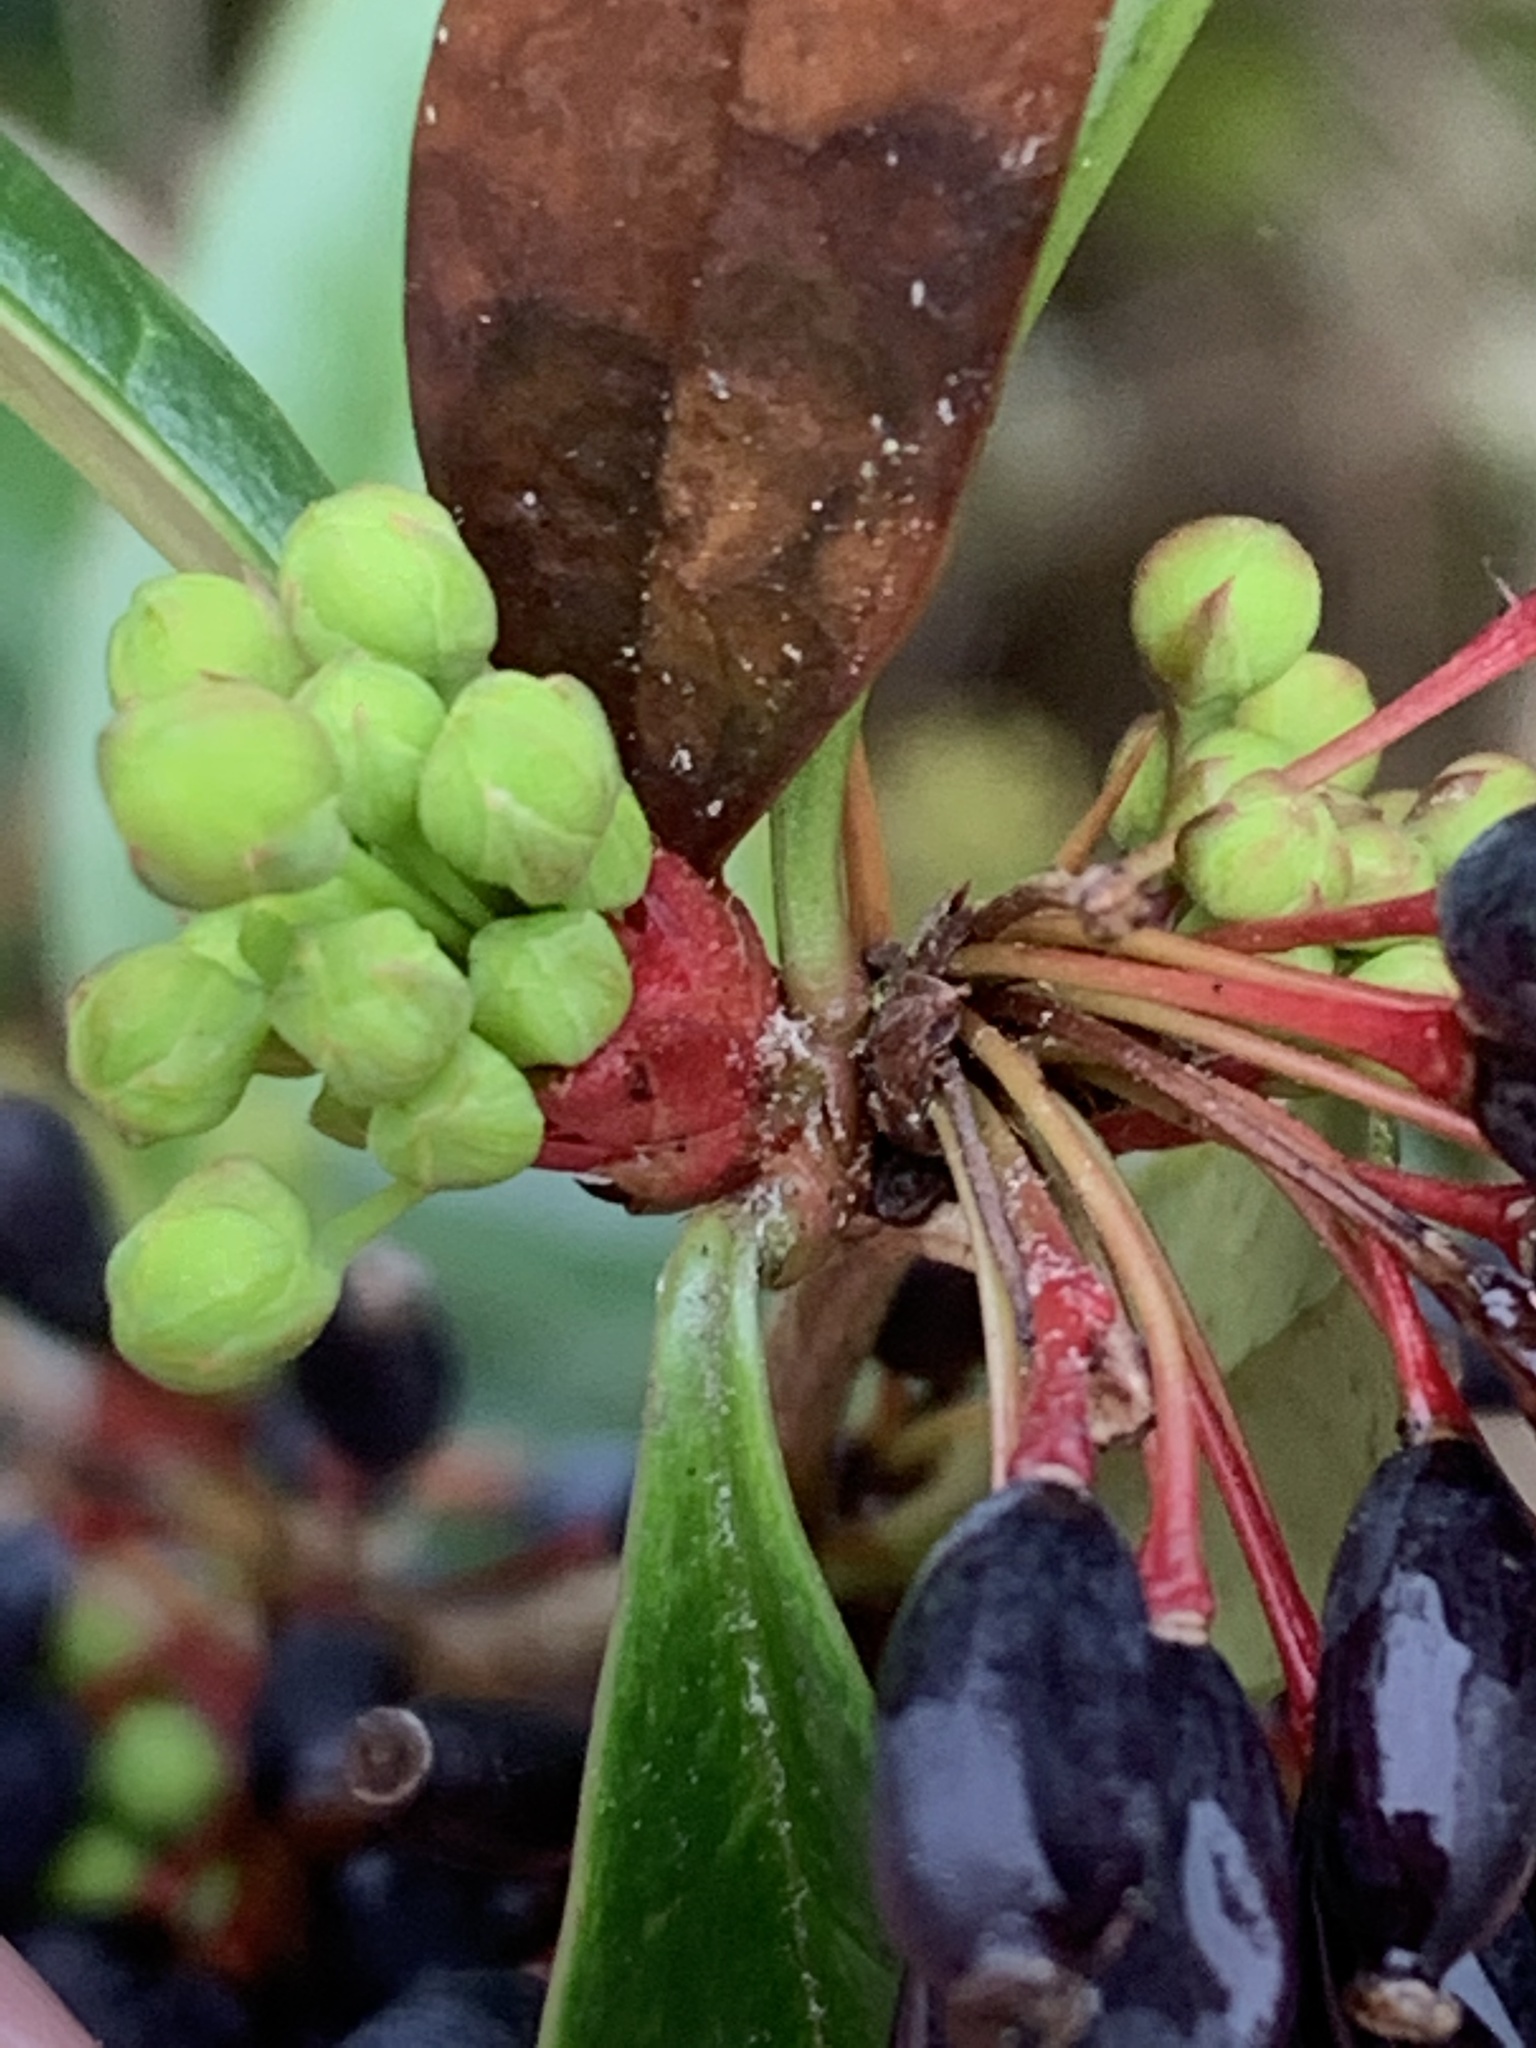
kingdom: Plantae
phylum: Tracheophyta
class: Magnoliopsida
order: Ranunculales
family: Berberidaceae
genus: Berberis
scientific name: Berberis julianae
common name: Wintergreen barberry
